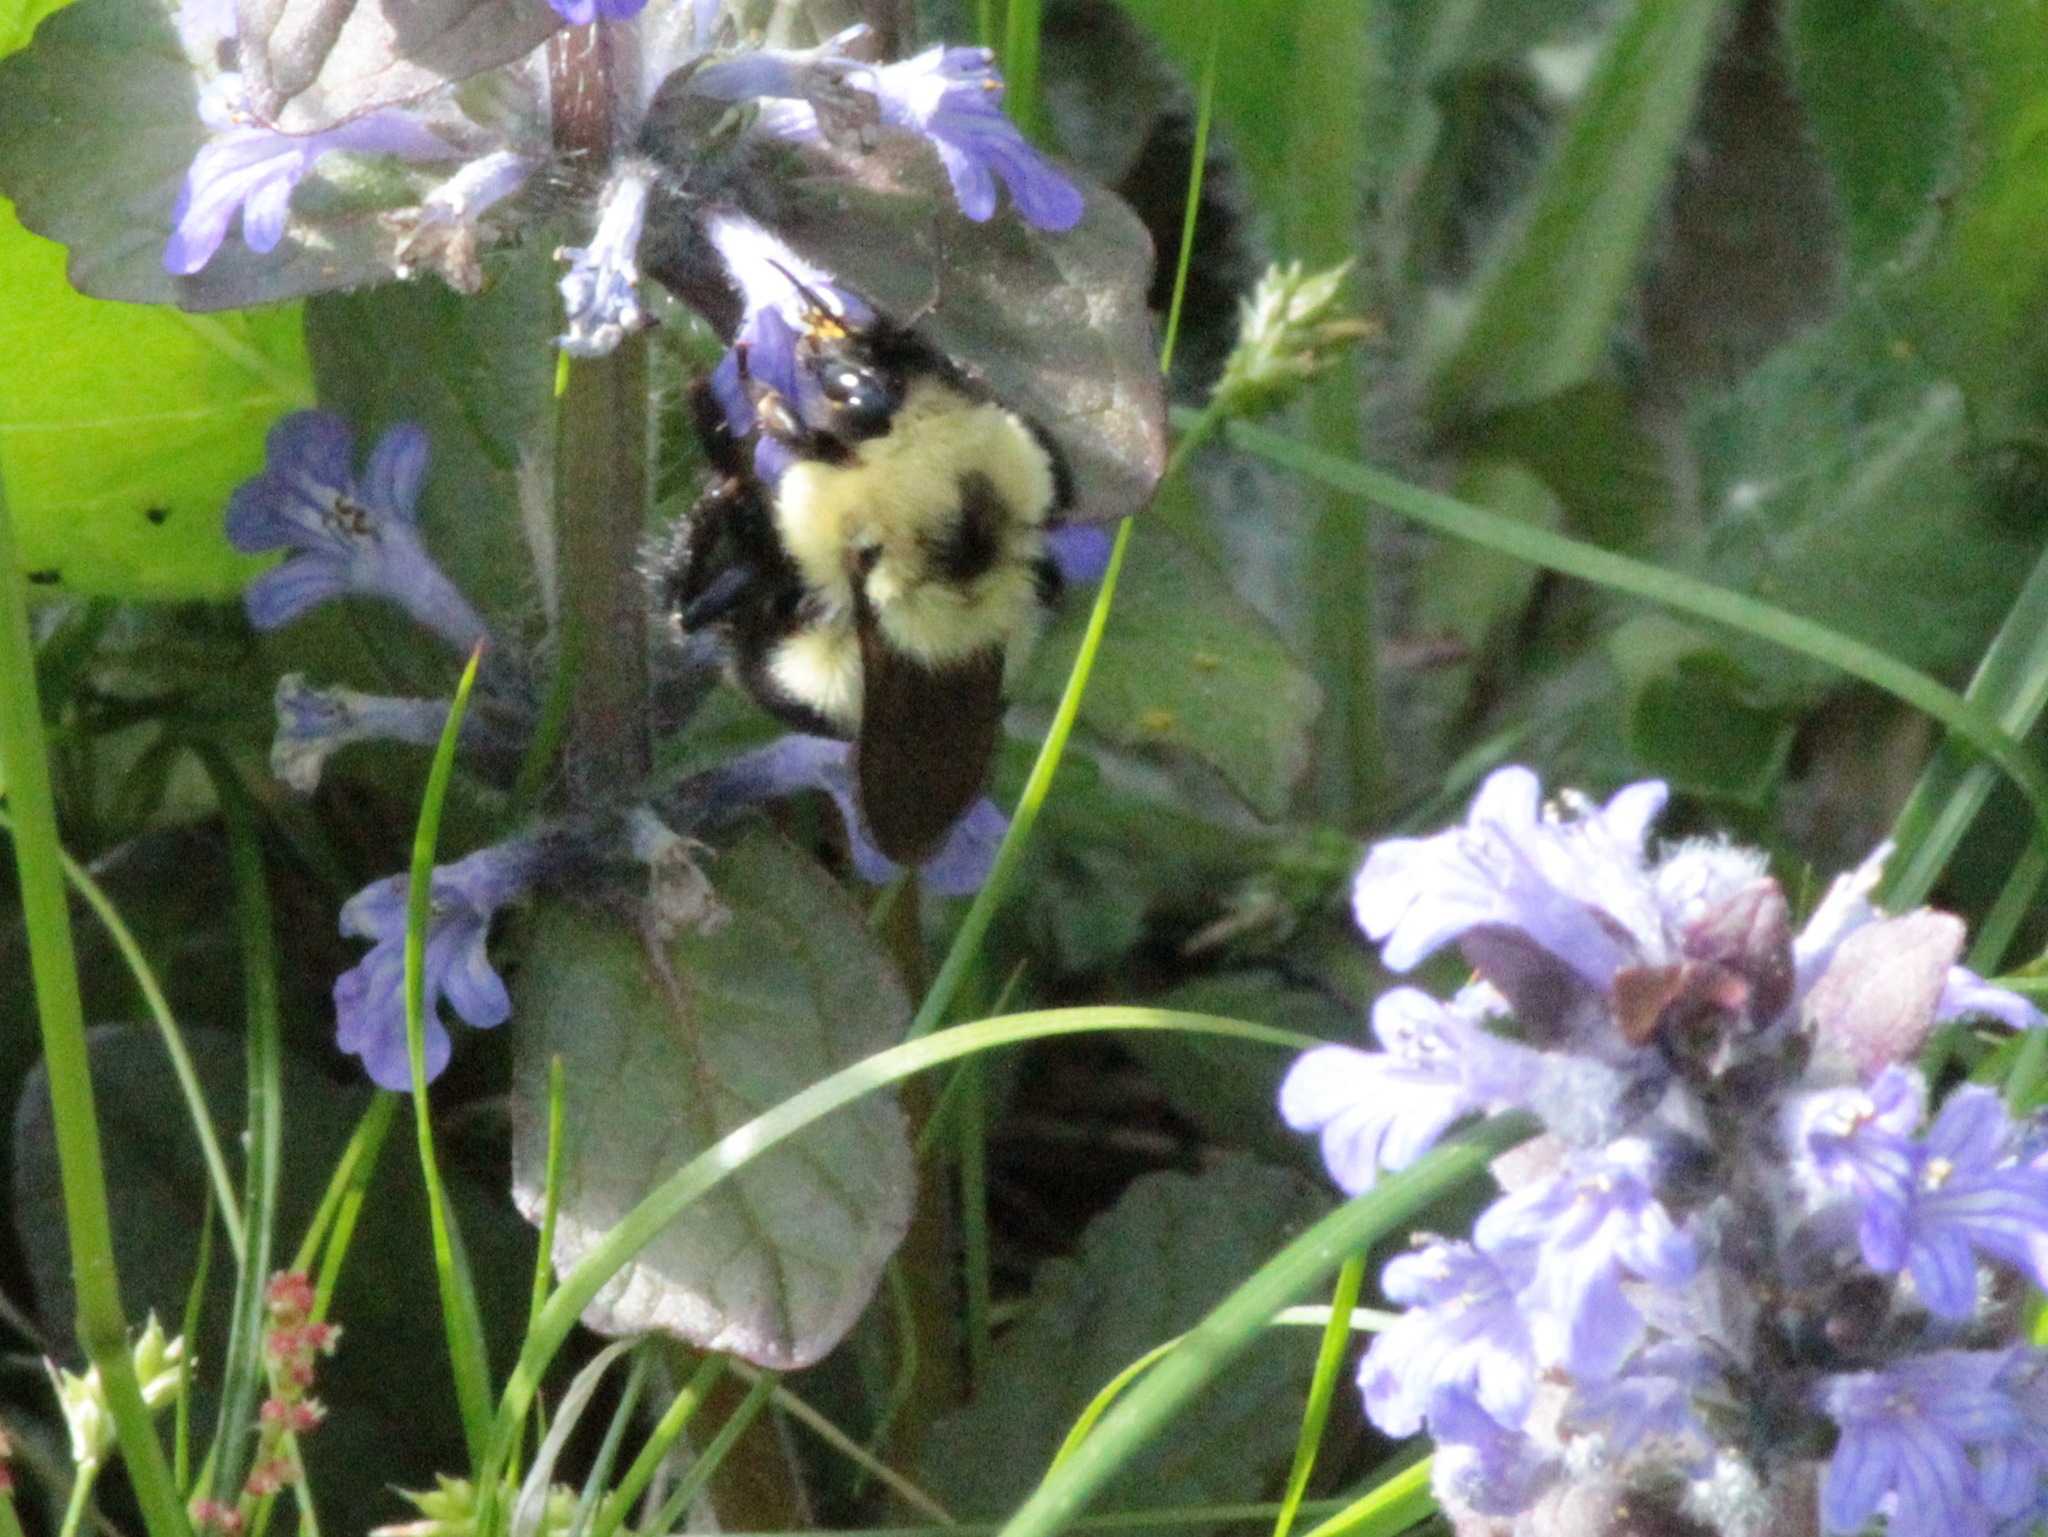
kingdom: Animalia
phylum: Arthropoda
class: Insecta
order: Hymenoptera
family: Apidae
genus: Bombus
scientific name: Bombus bimaculatus
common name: Two-spotted bumble bee
